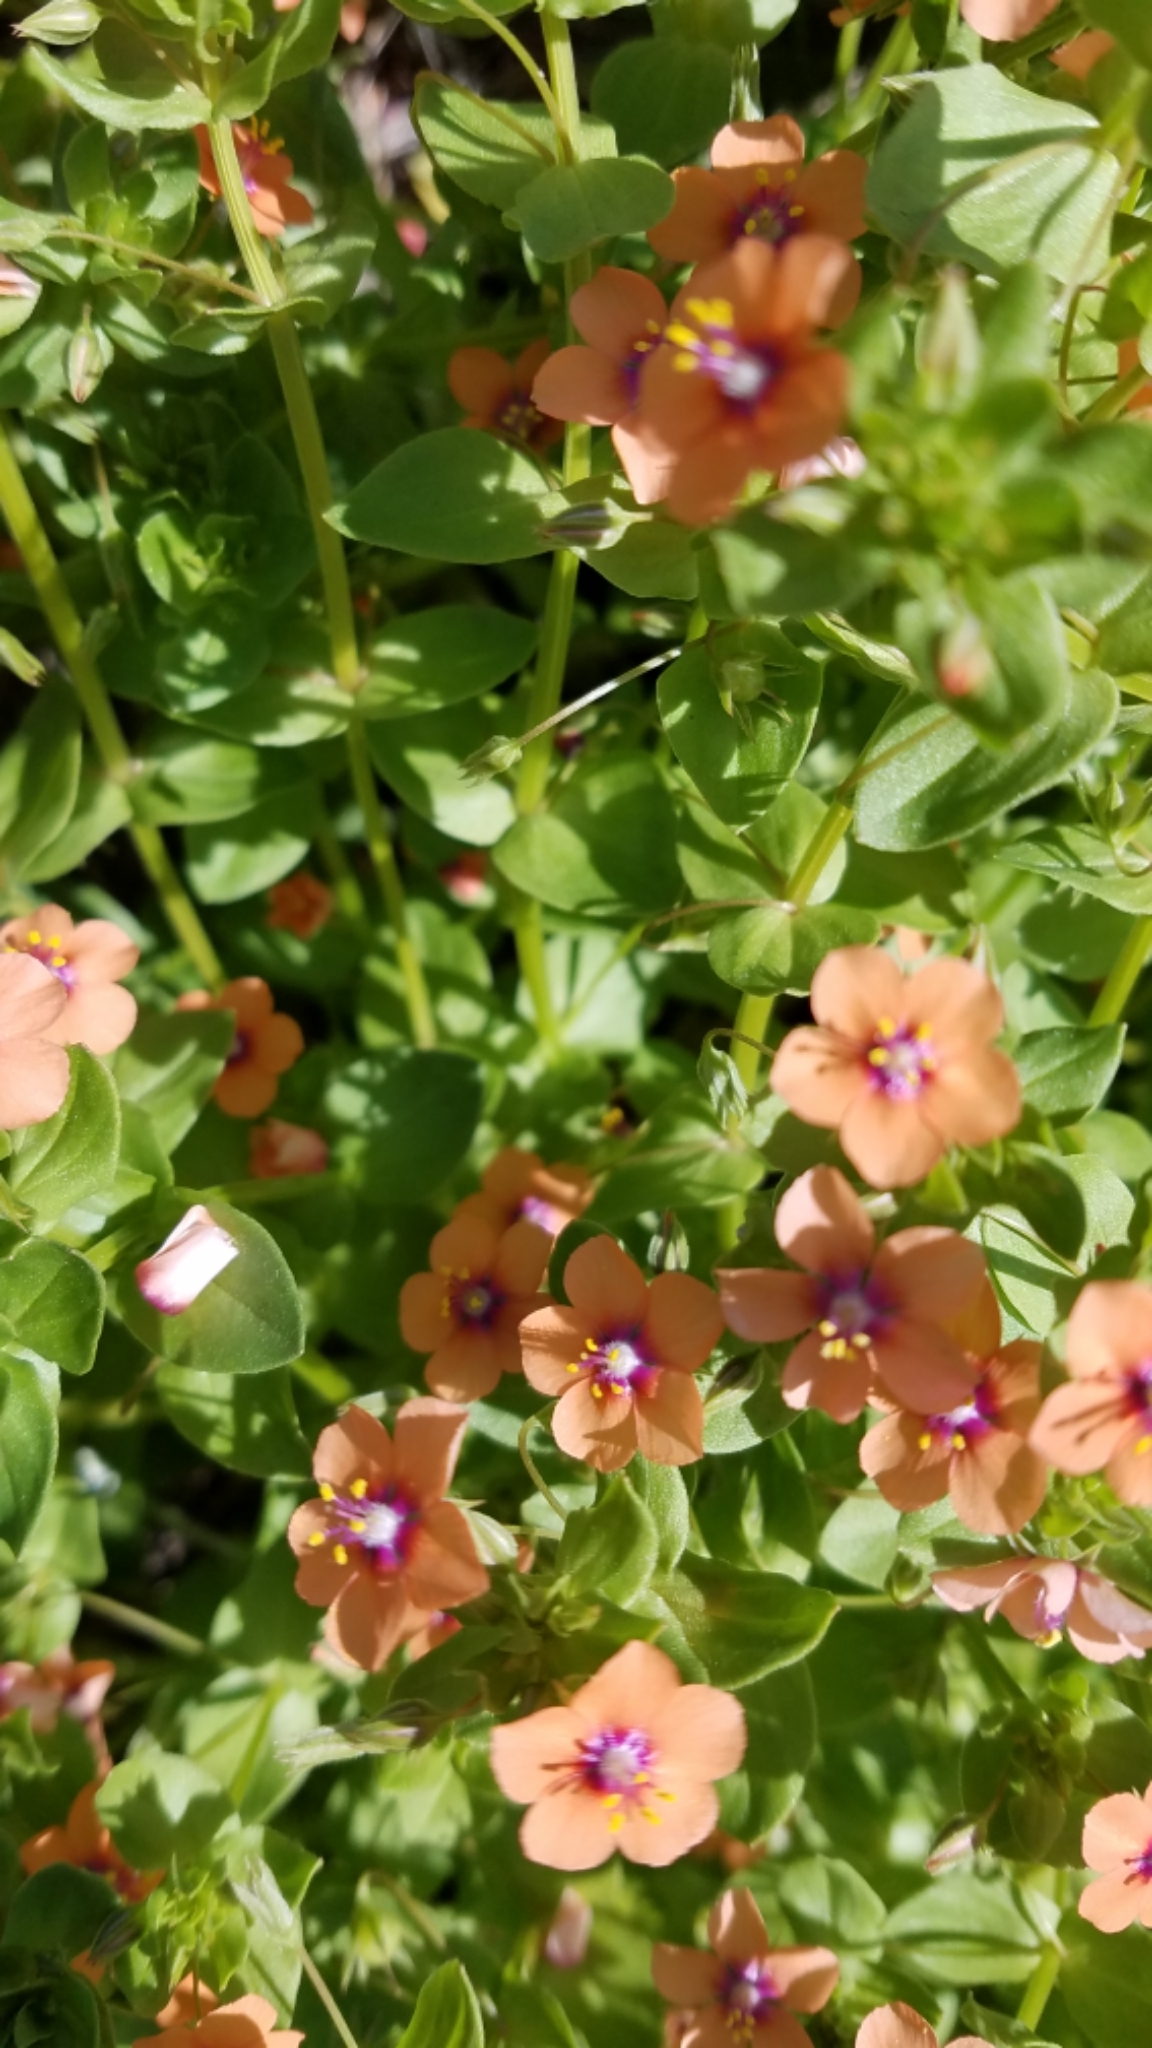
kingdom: Plantae
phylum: Tracheophyta
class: Magnoliopsida
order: Ericales
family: Primulaceae
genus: Lysimachia
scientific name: Lysimachia arvensis
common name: Scarlet pimpernel
